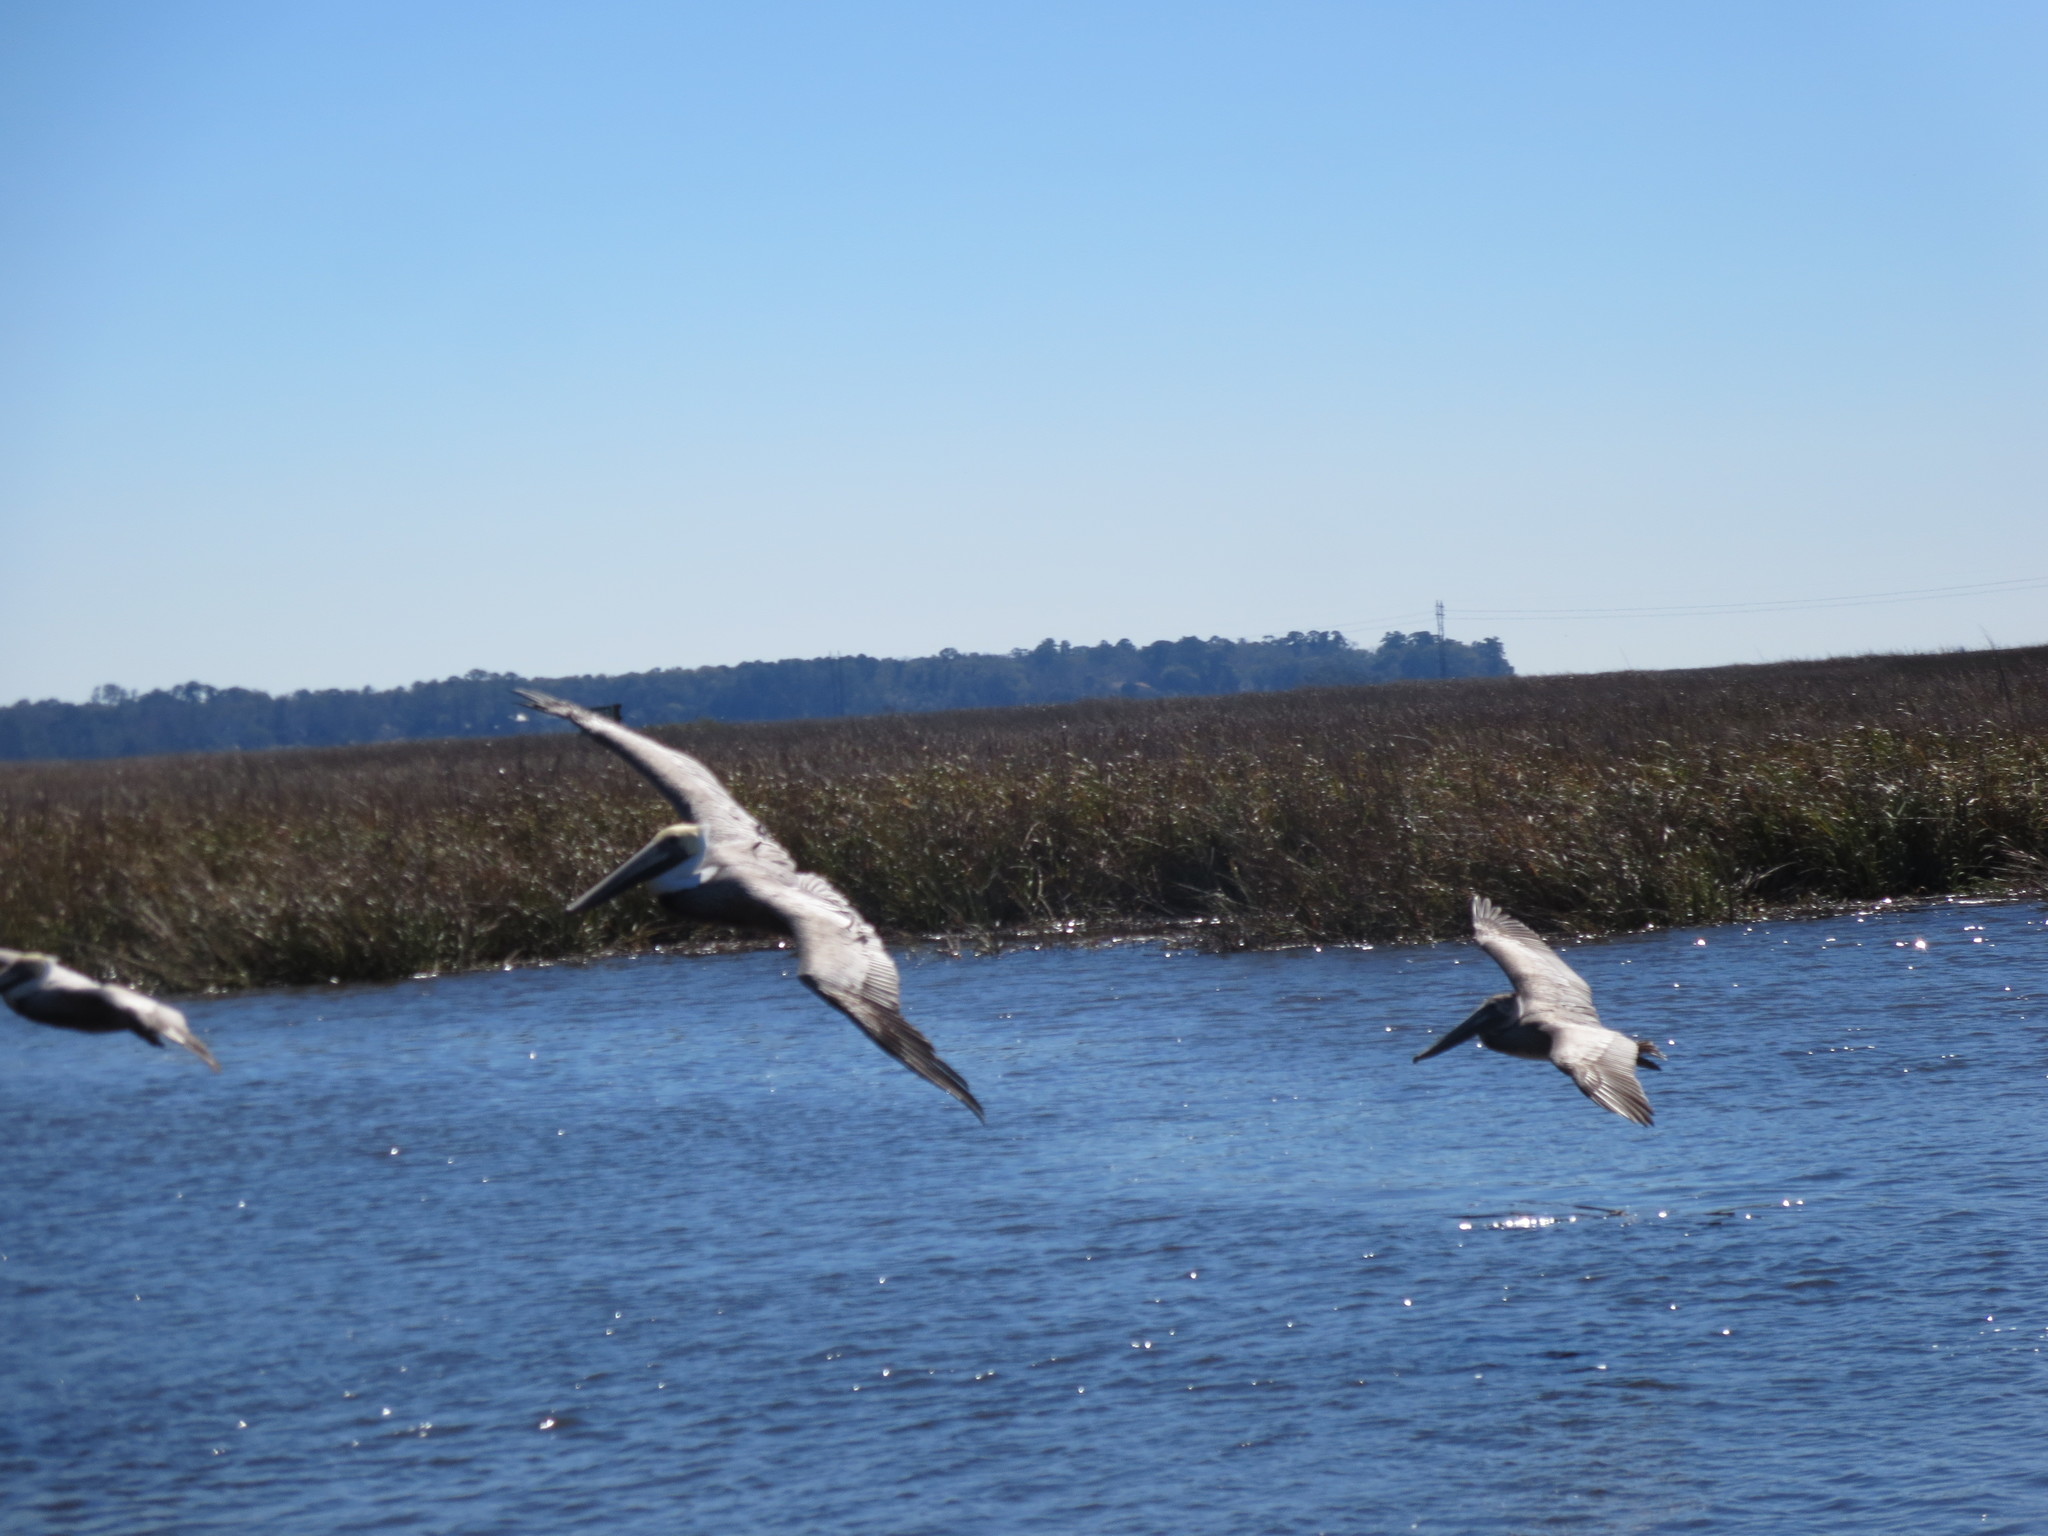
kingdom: Animalia
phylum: Chordata
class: Aves
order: Pelecaniformes
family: Pelecanidae
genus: Pelecanus
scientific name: Pelecanus occidentalis
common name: Brown pelican
